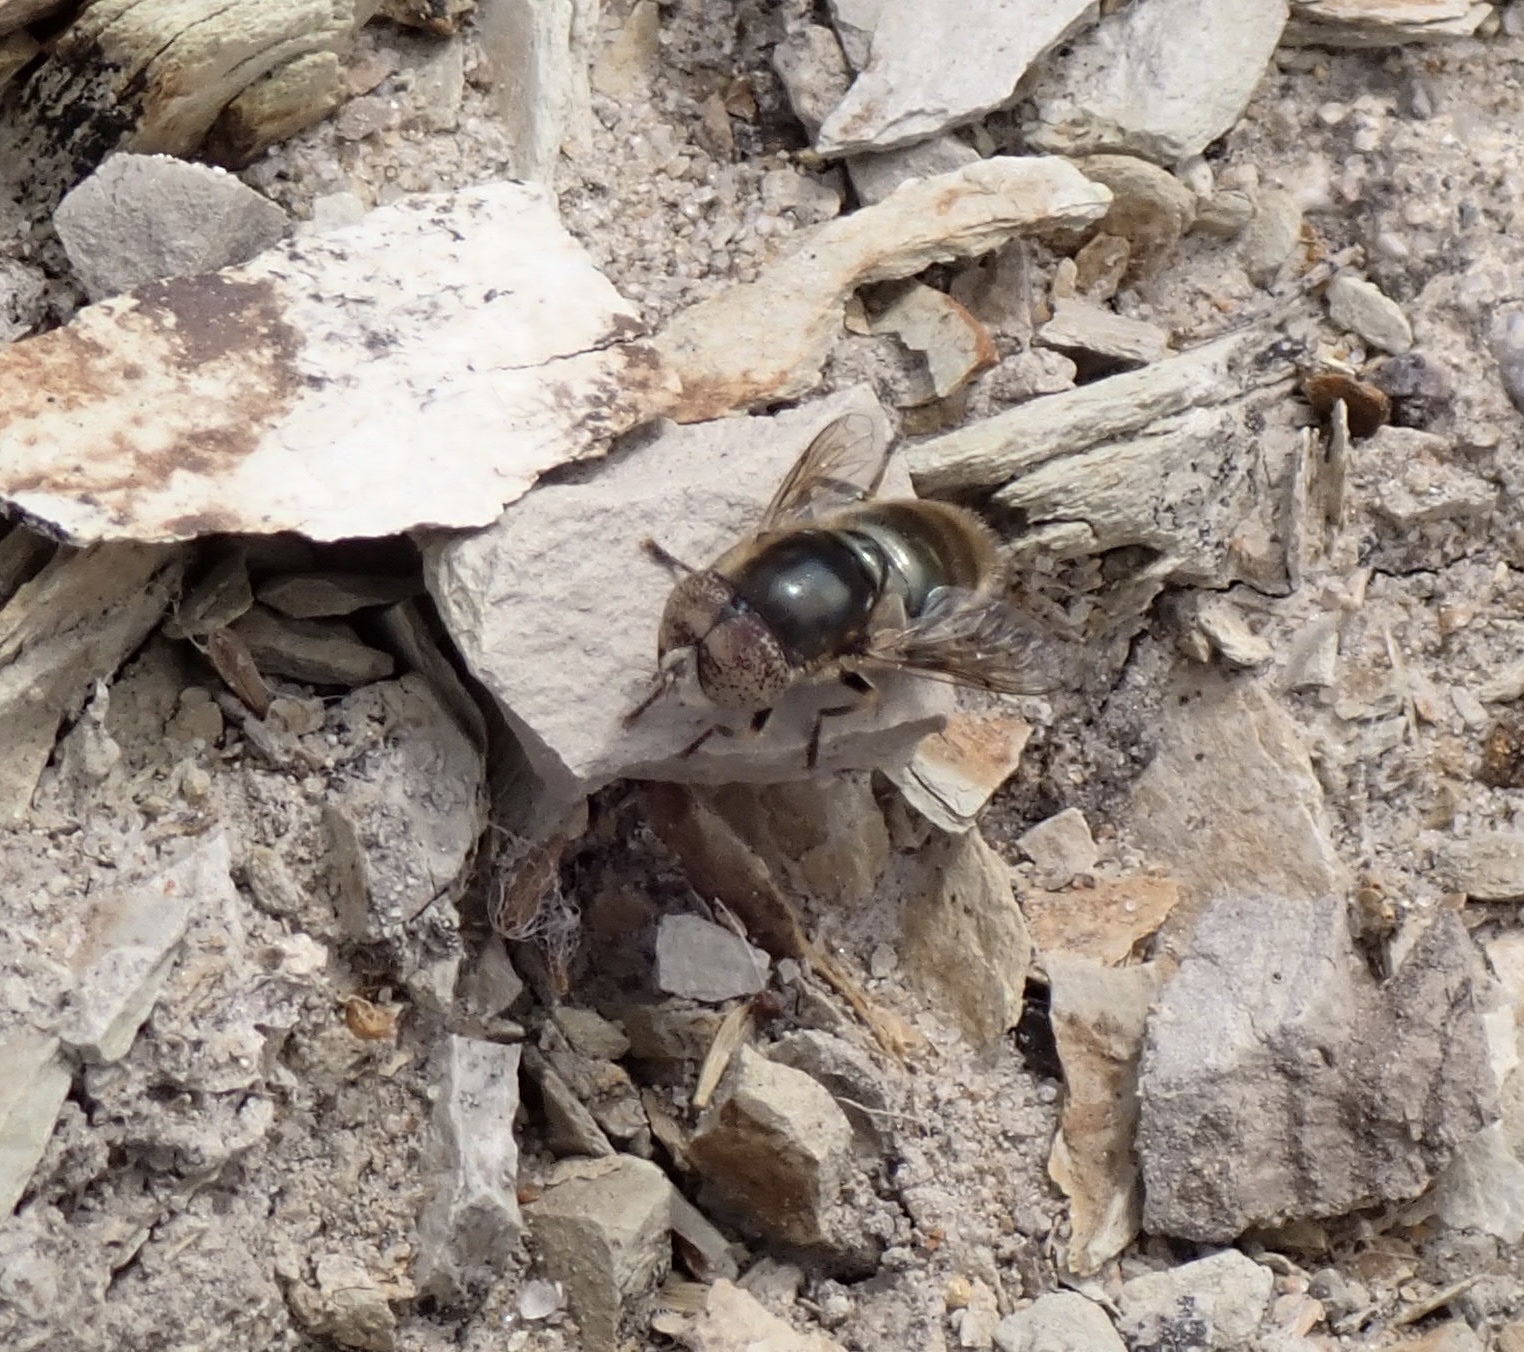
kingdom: Animalia
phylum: Arthropoda
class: Insecta
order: Diptera
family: Syrphidae
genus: Eristalinus
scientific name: Eristalinus aeneus
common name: Syrphid fly
